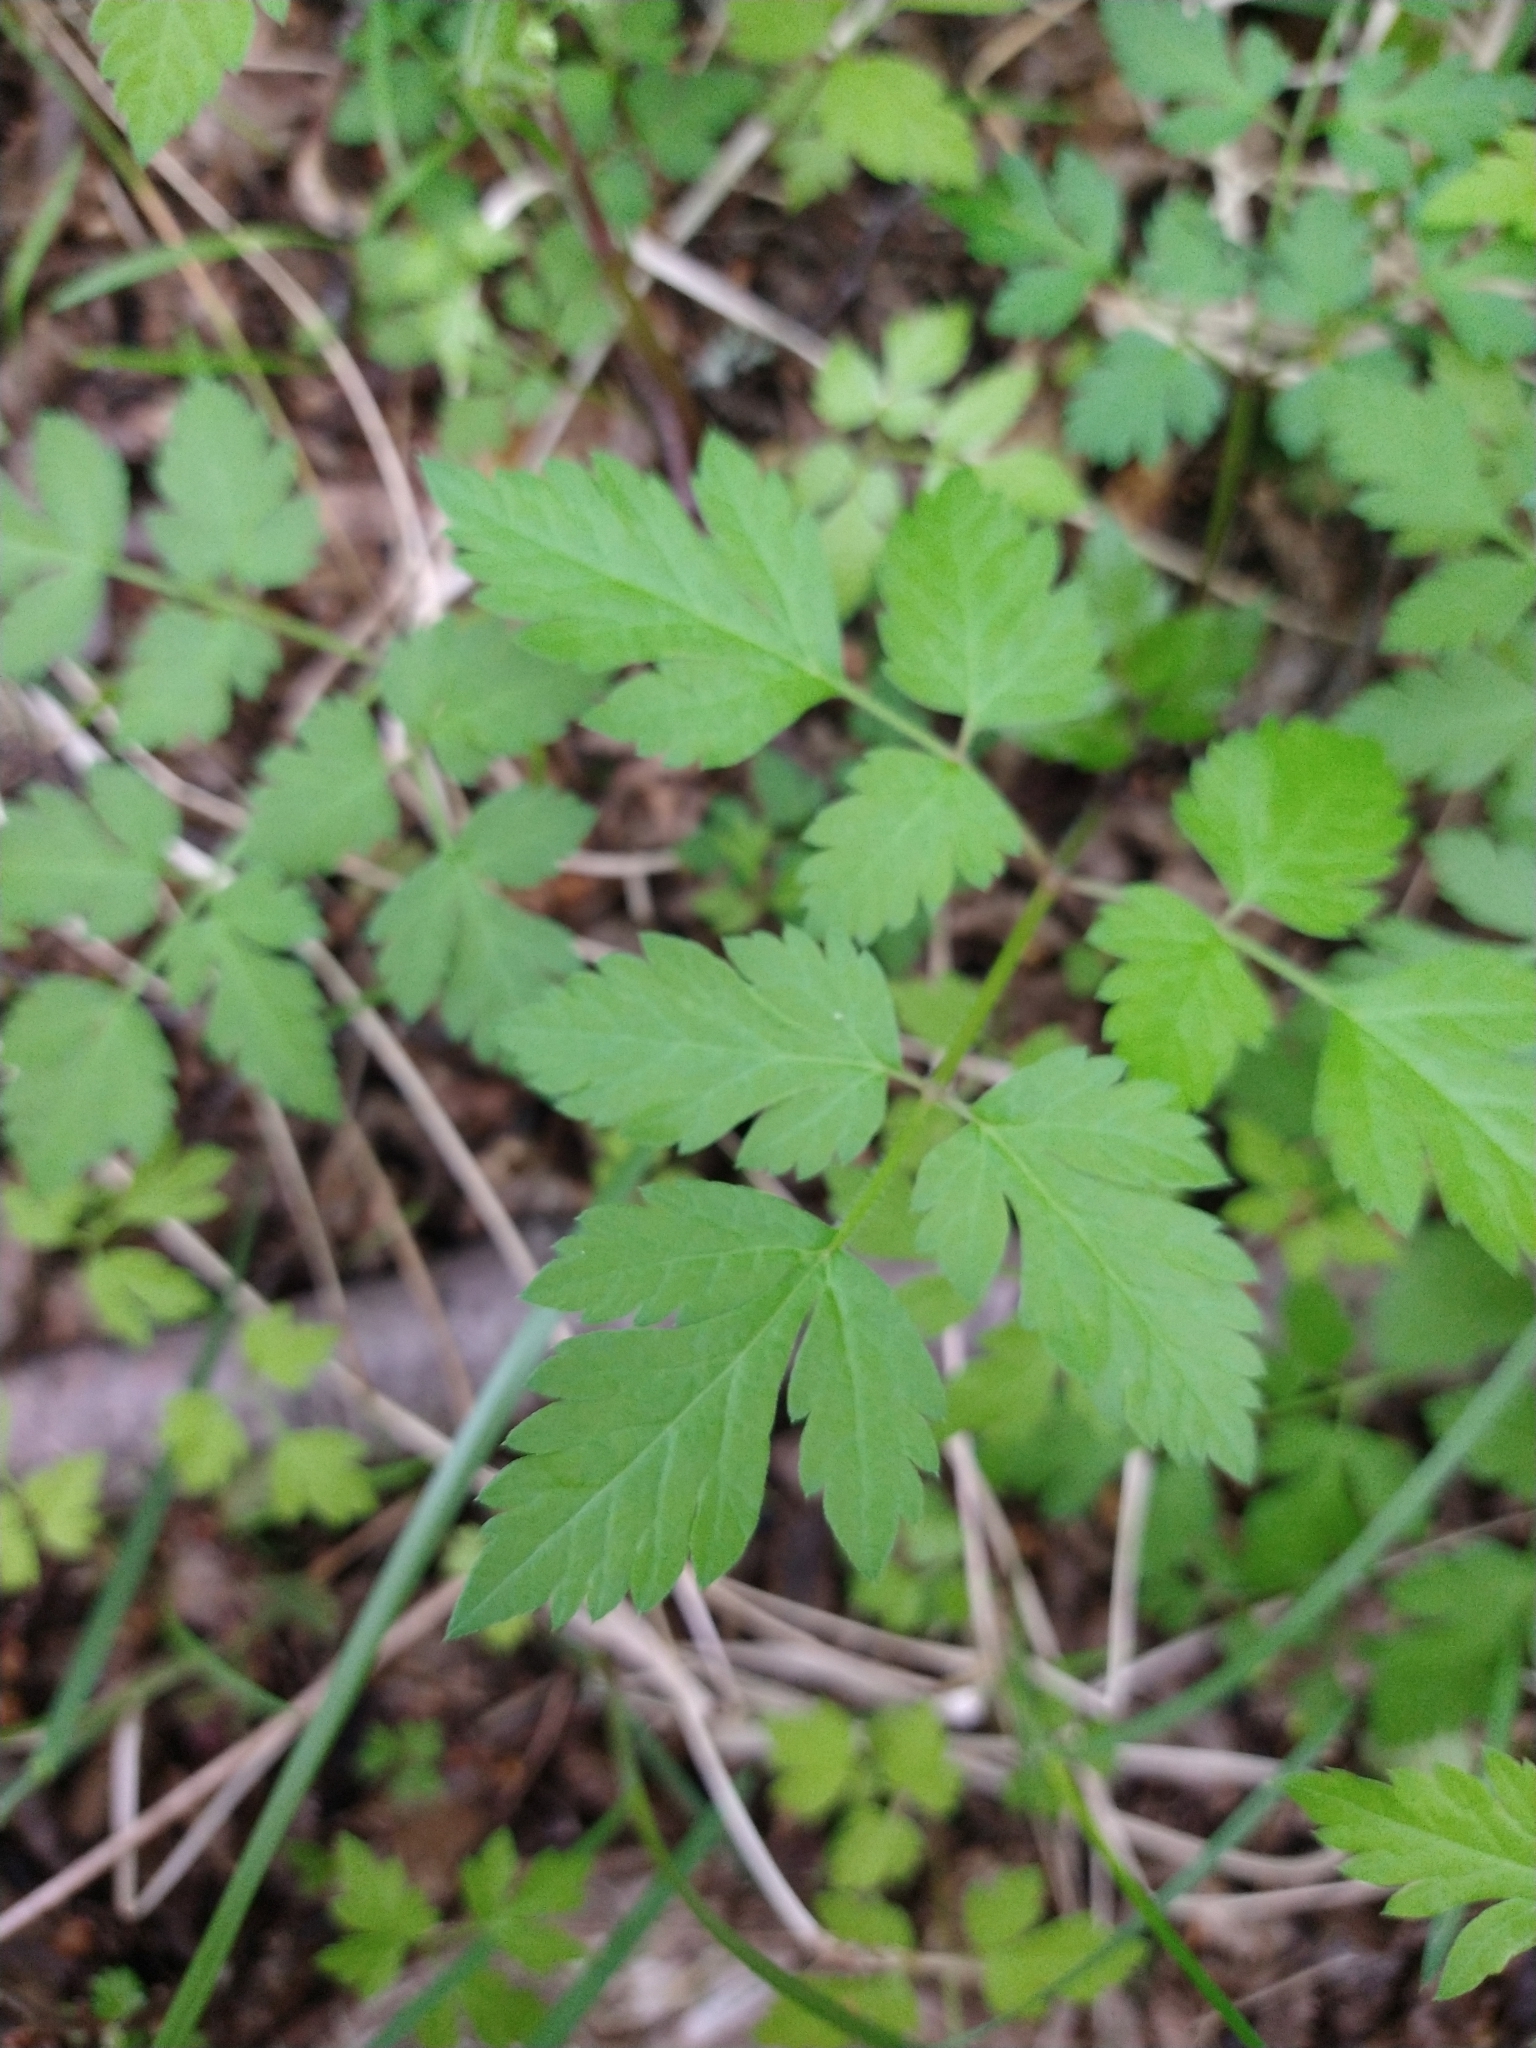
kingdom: Plantae
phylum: Tracheophyta
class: Magnoliopsida
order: Apiales
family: Apiaceae
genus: Osmorhiza
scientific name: Osmorhiza berteroi
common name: Mountain sweet cicely
